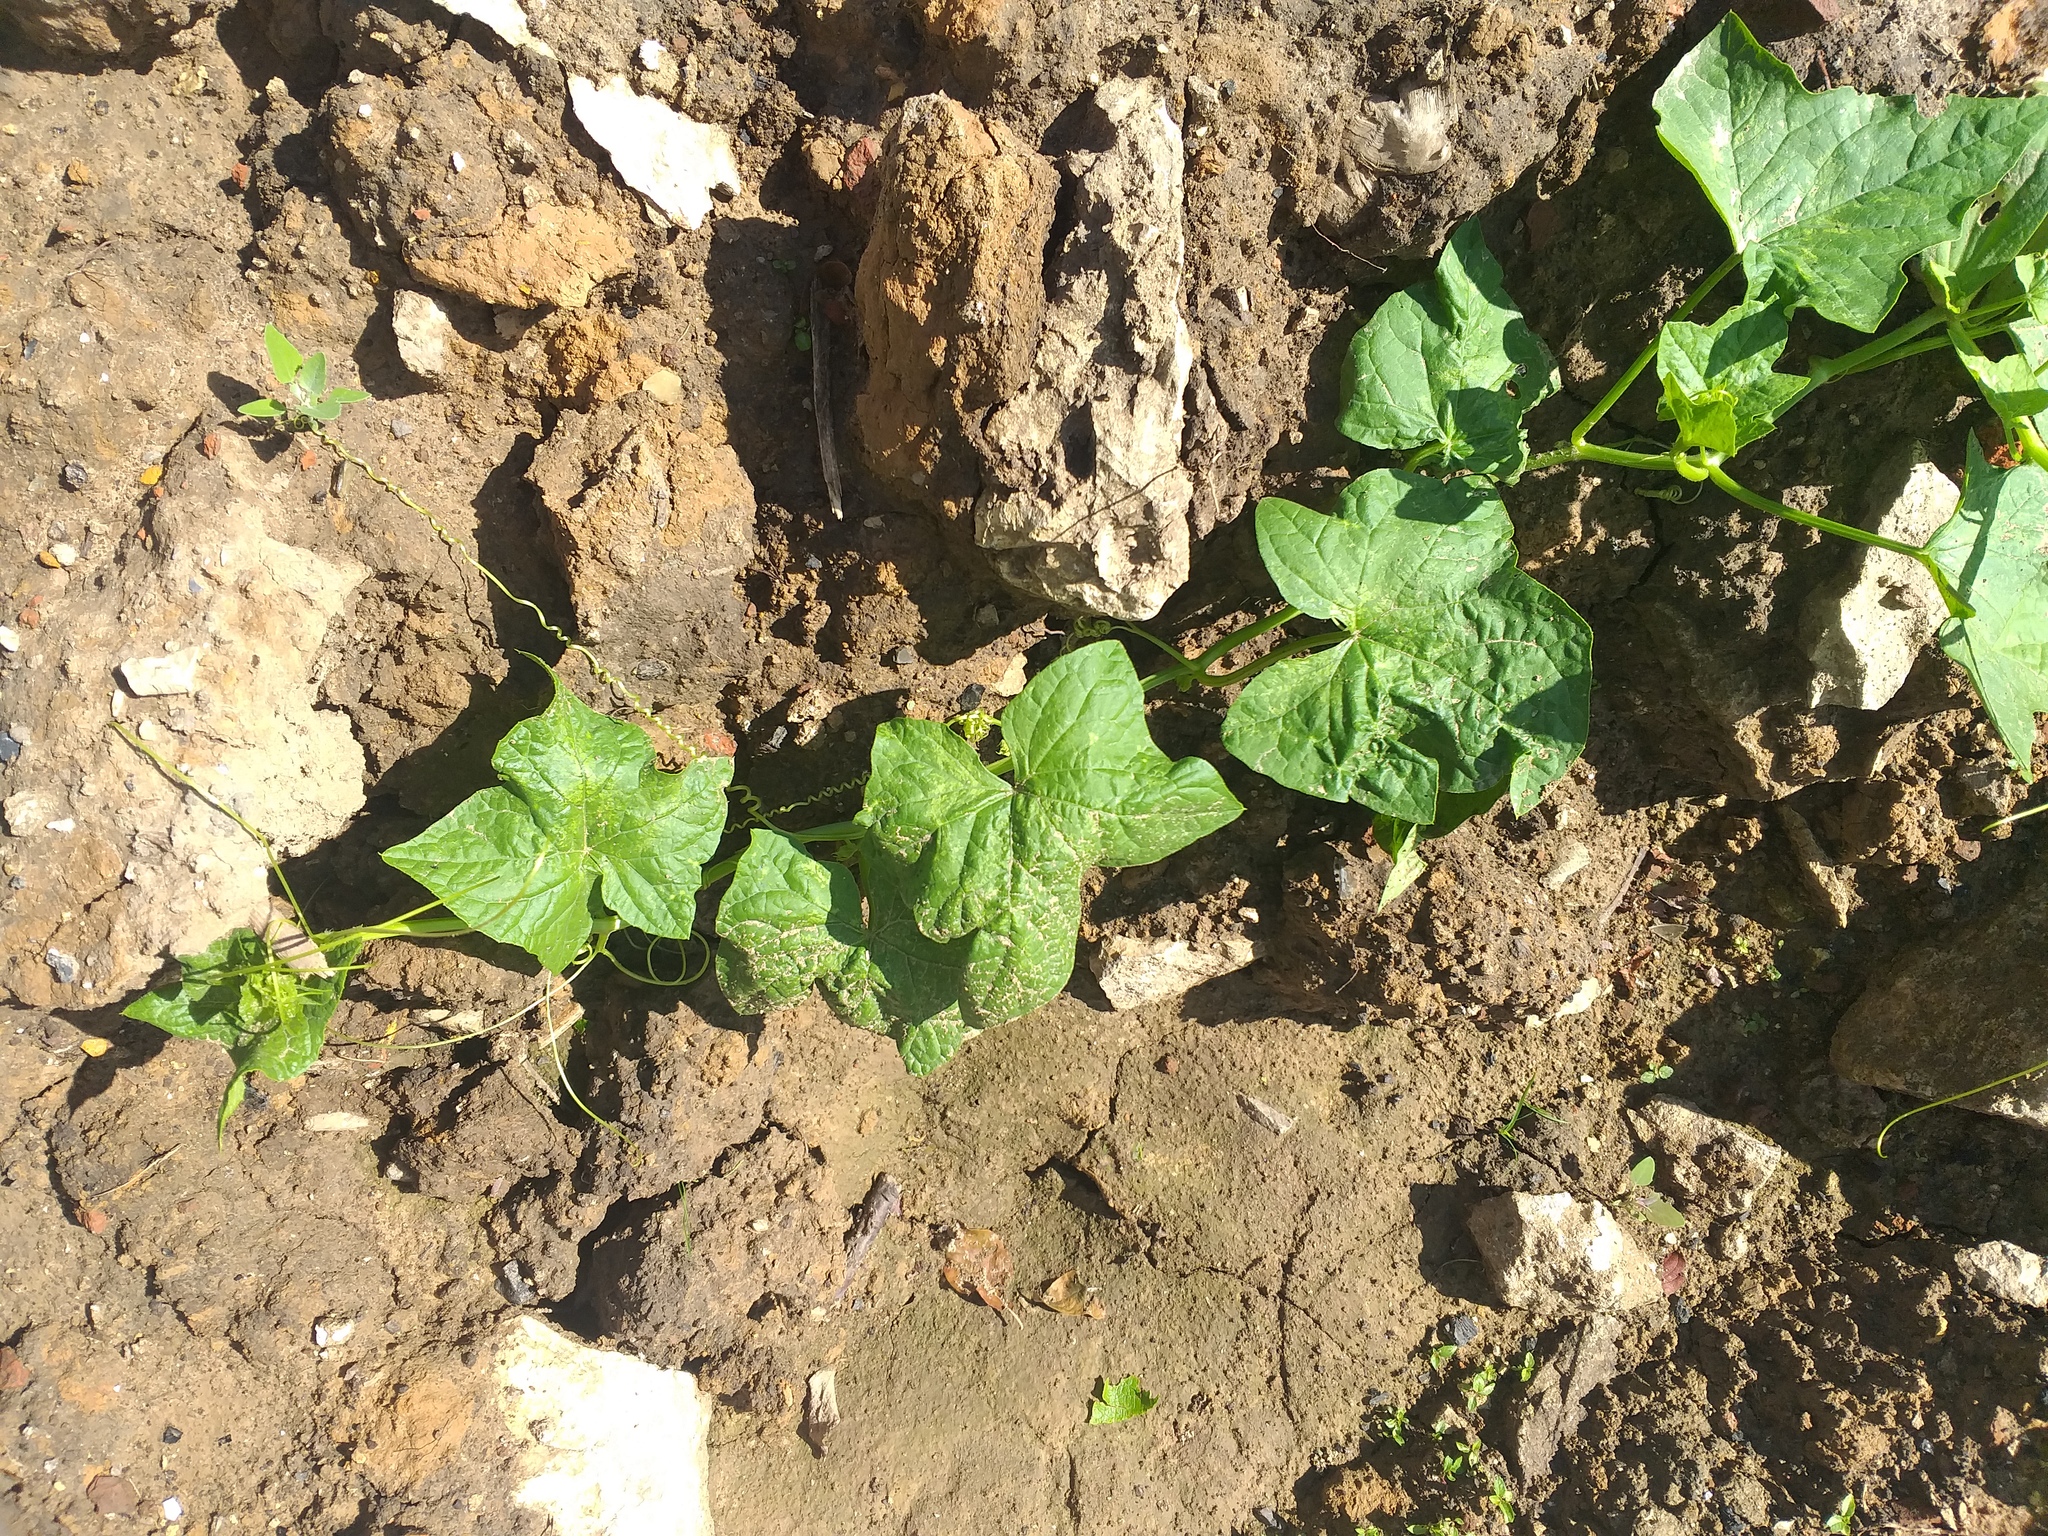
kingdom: Plantae
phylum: Tracheophyta
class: Magnoliopsida
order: Cucurbitales
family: Cucurbitaceae
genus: Cucumis
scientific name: Cucumis sativus
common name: Cucumber
